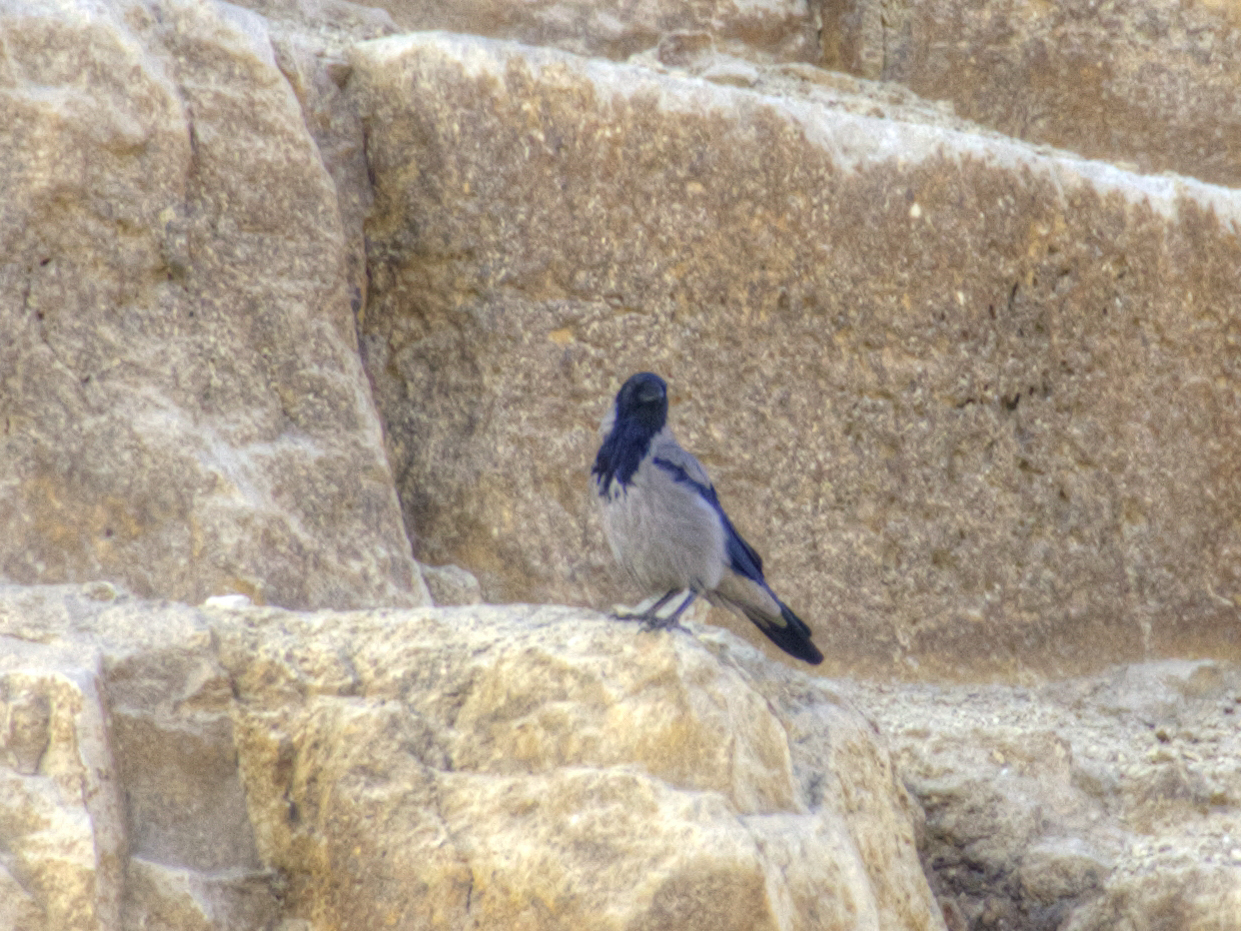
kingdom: Animalia
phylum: Chordata
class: Aves
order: Passeriformes
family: Corvidae
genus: Corvus
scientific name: Corvus cornix
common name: Hooded crow
